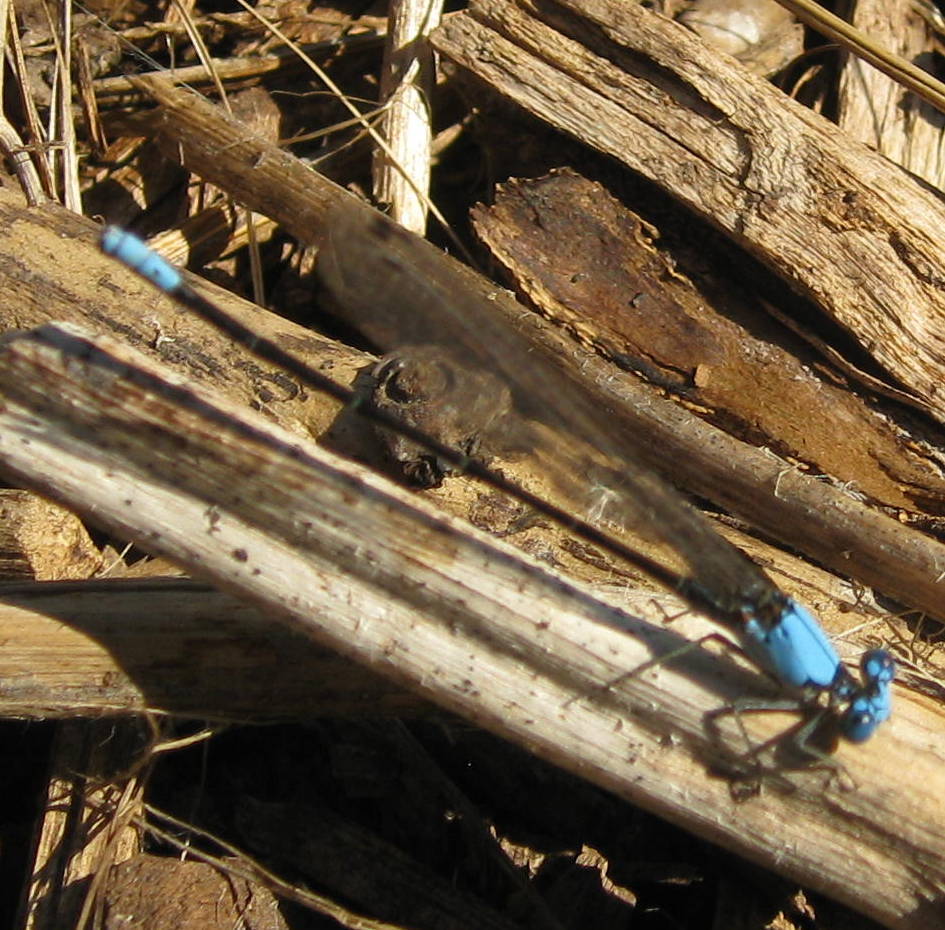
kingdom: Animalia
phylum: Arthropoda
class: Insecta
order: Odonata
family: Coenagrionidae
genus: Argia
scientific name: Argia apicalis
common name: Blue-fronted dancer
